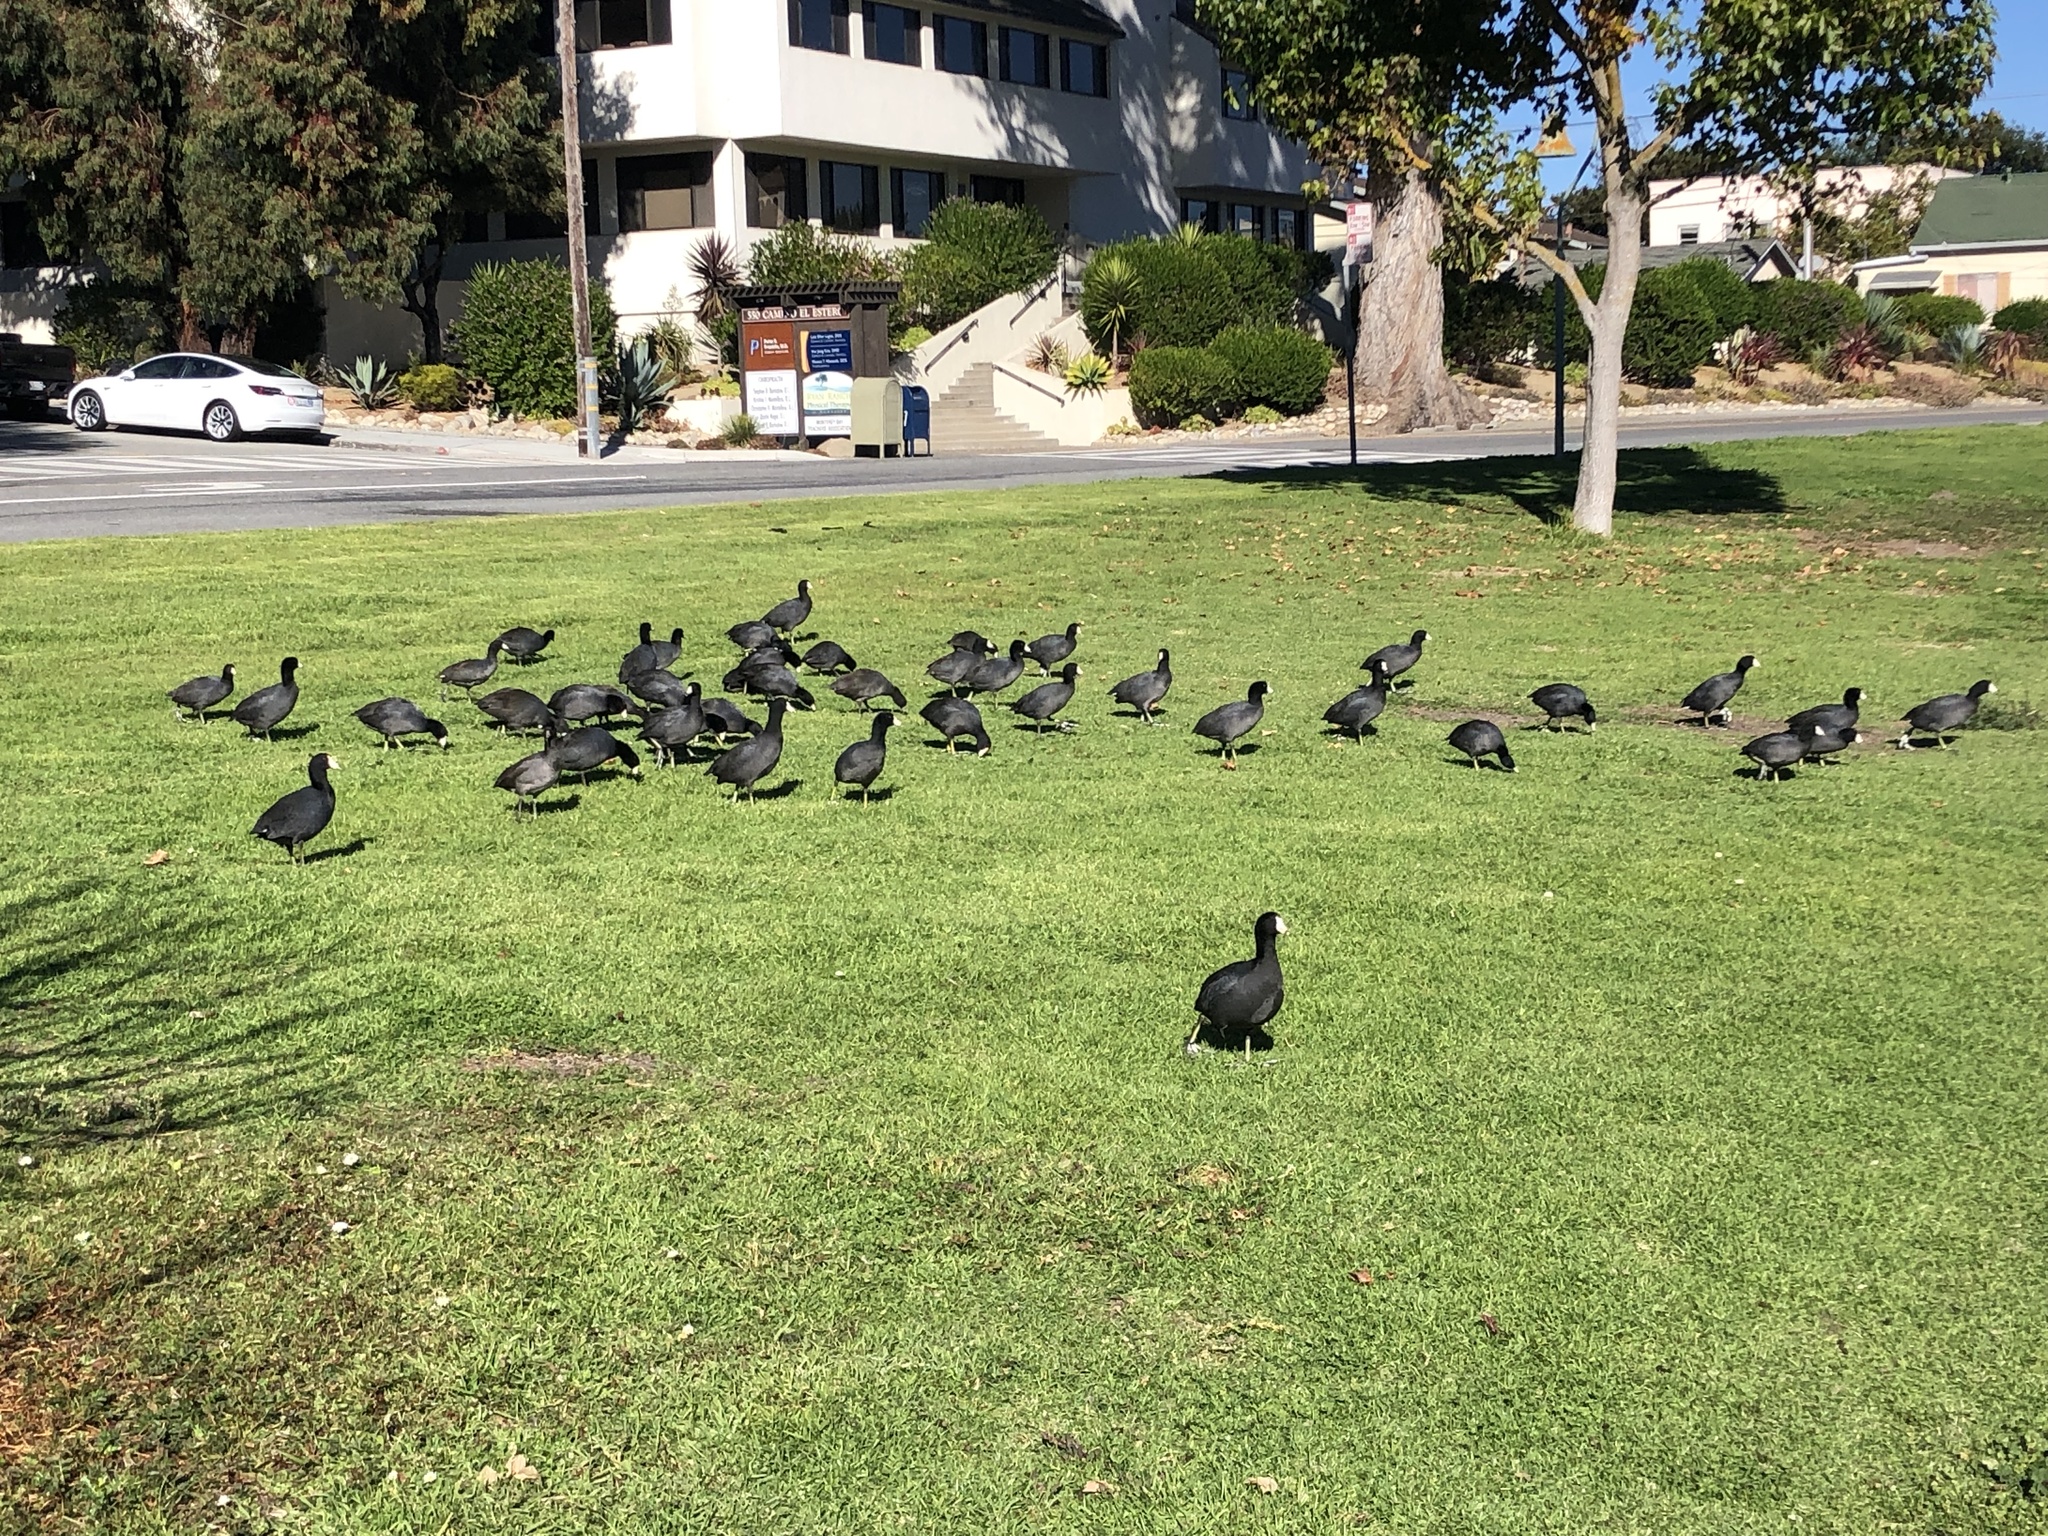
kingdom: Animalia
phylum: Chordata
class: Aves
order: Gruiformes
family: Rallidae
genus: Fulica
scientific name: Fulica americana
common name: American coot
